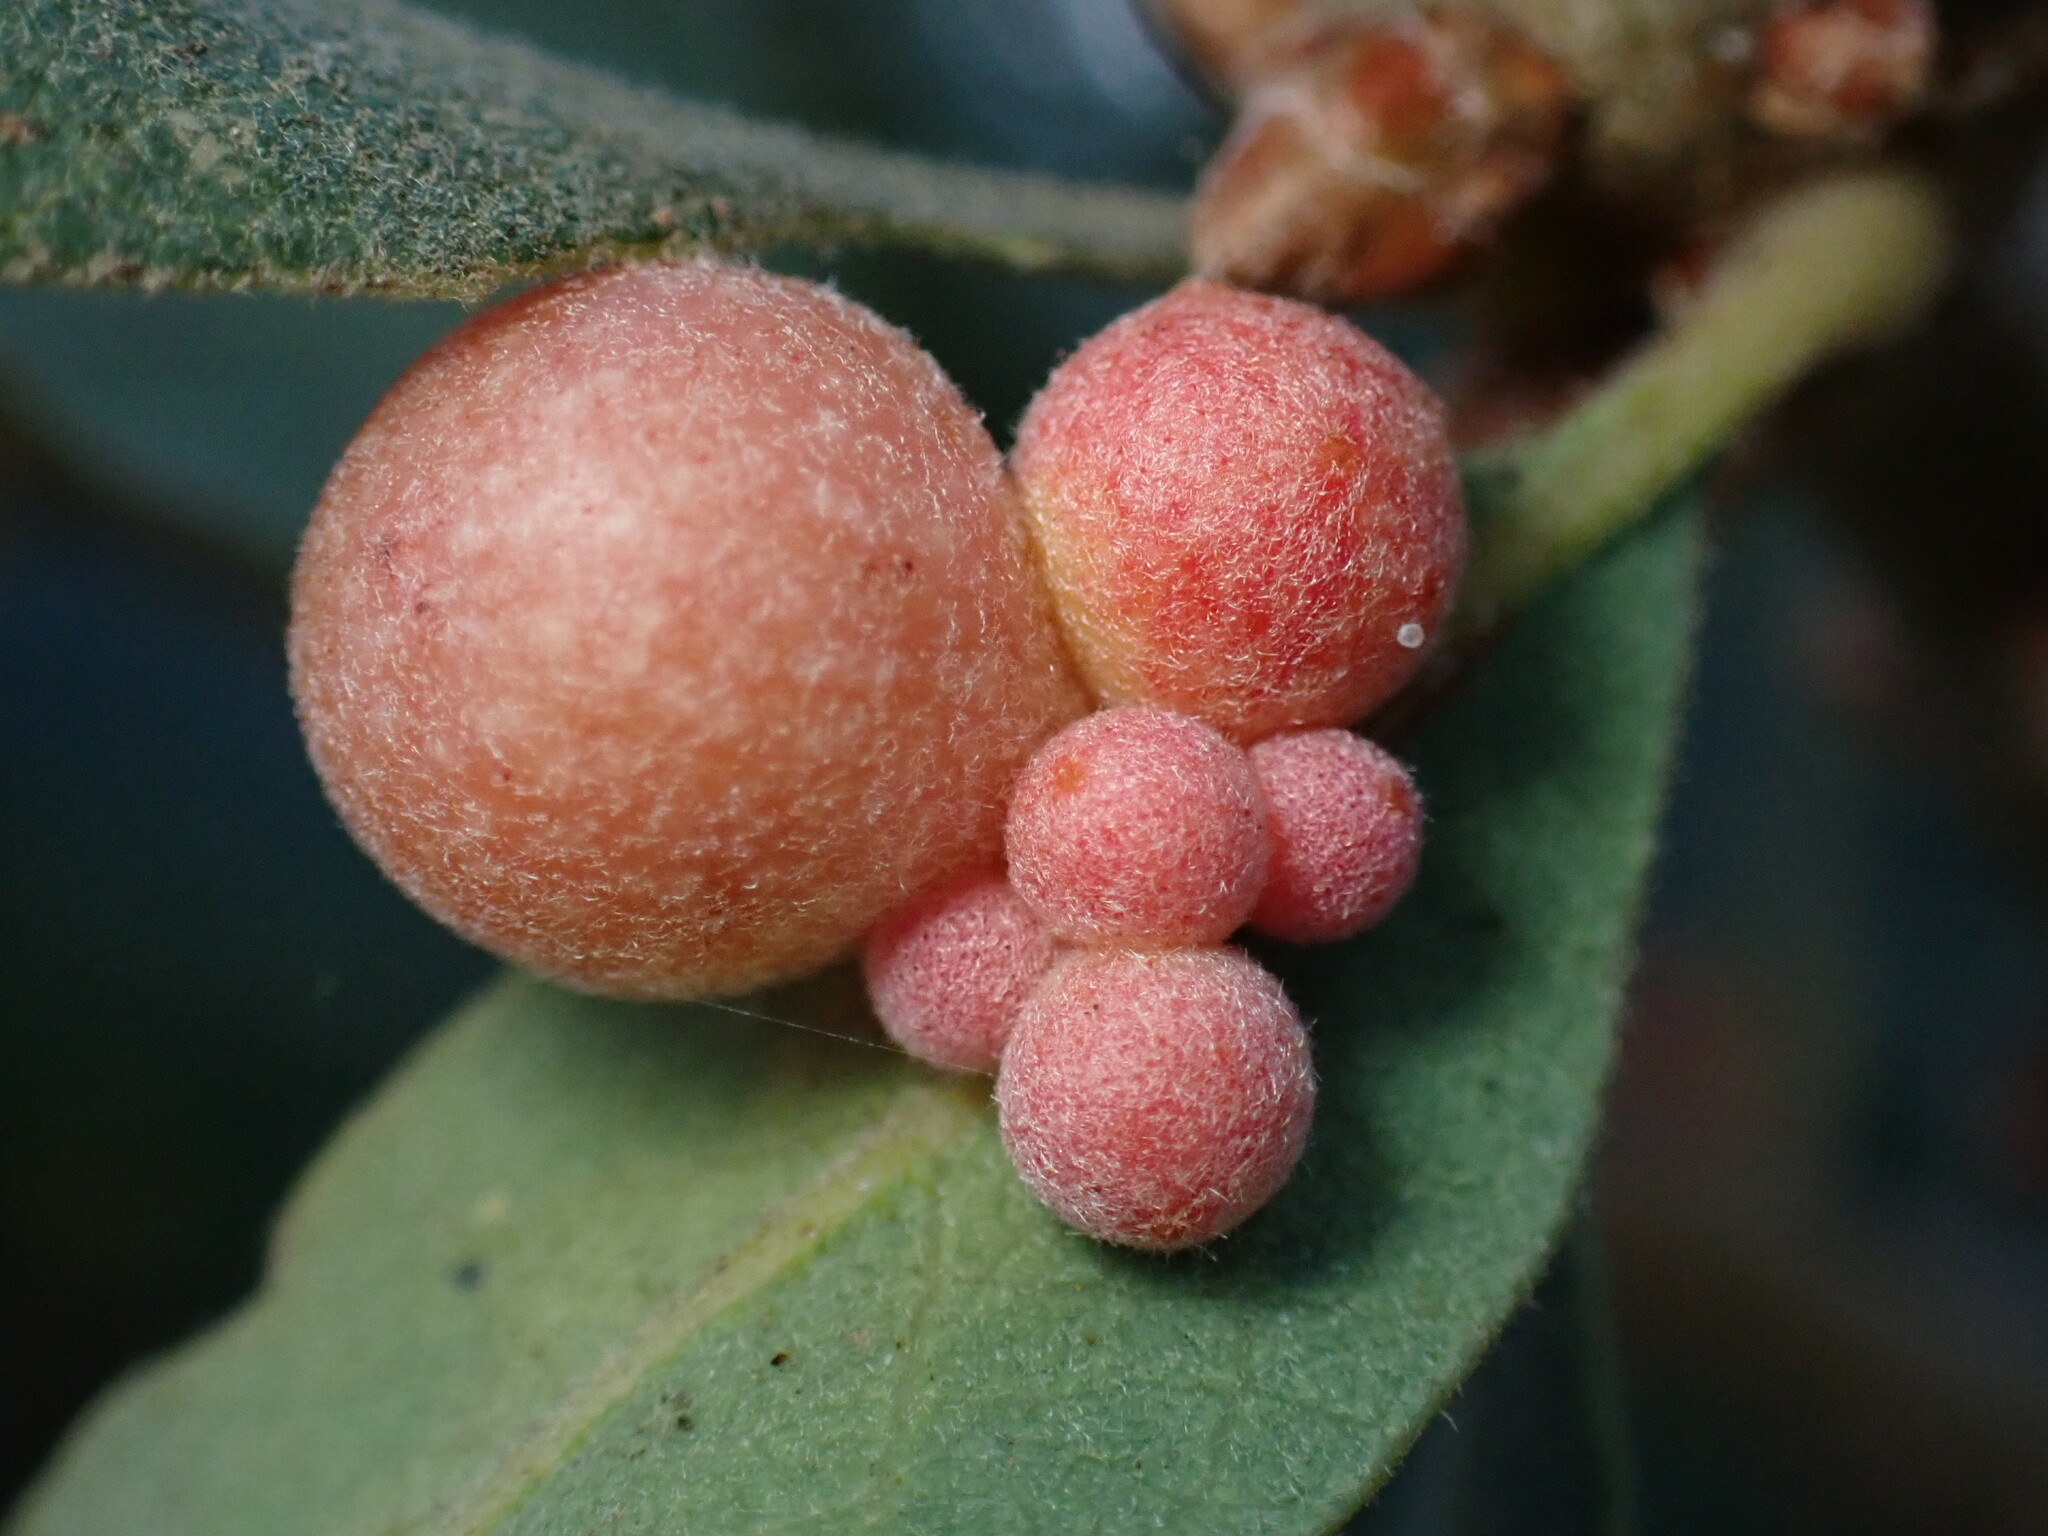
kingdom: Animalia
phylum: Arthropoda
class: Insecta
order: Hymenoptera
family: Cynipidae
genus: Andricus
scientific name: Andricus
